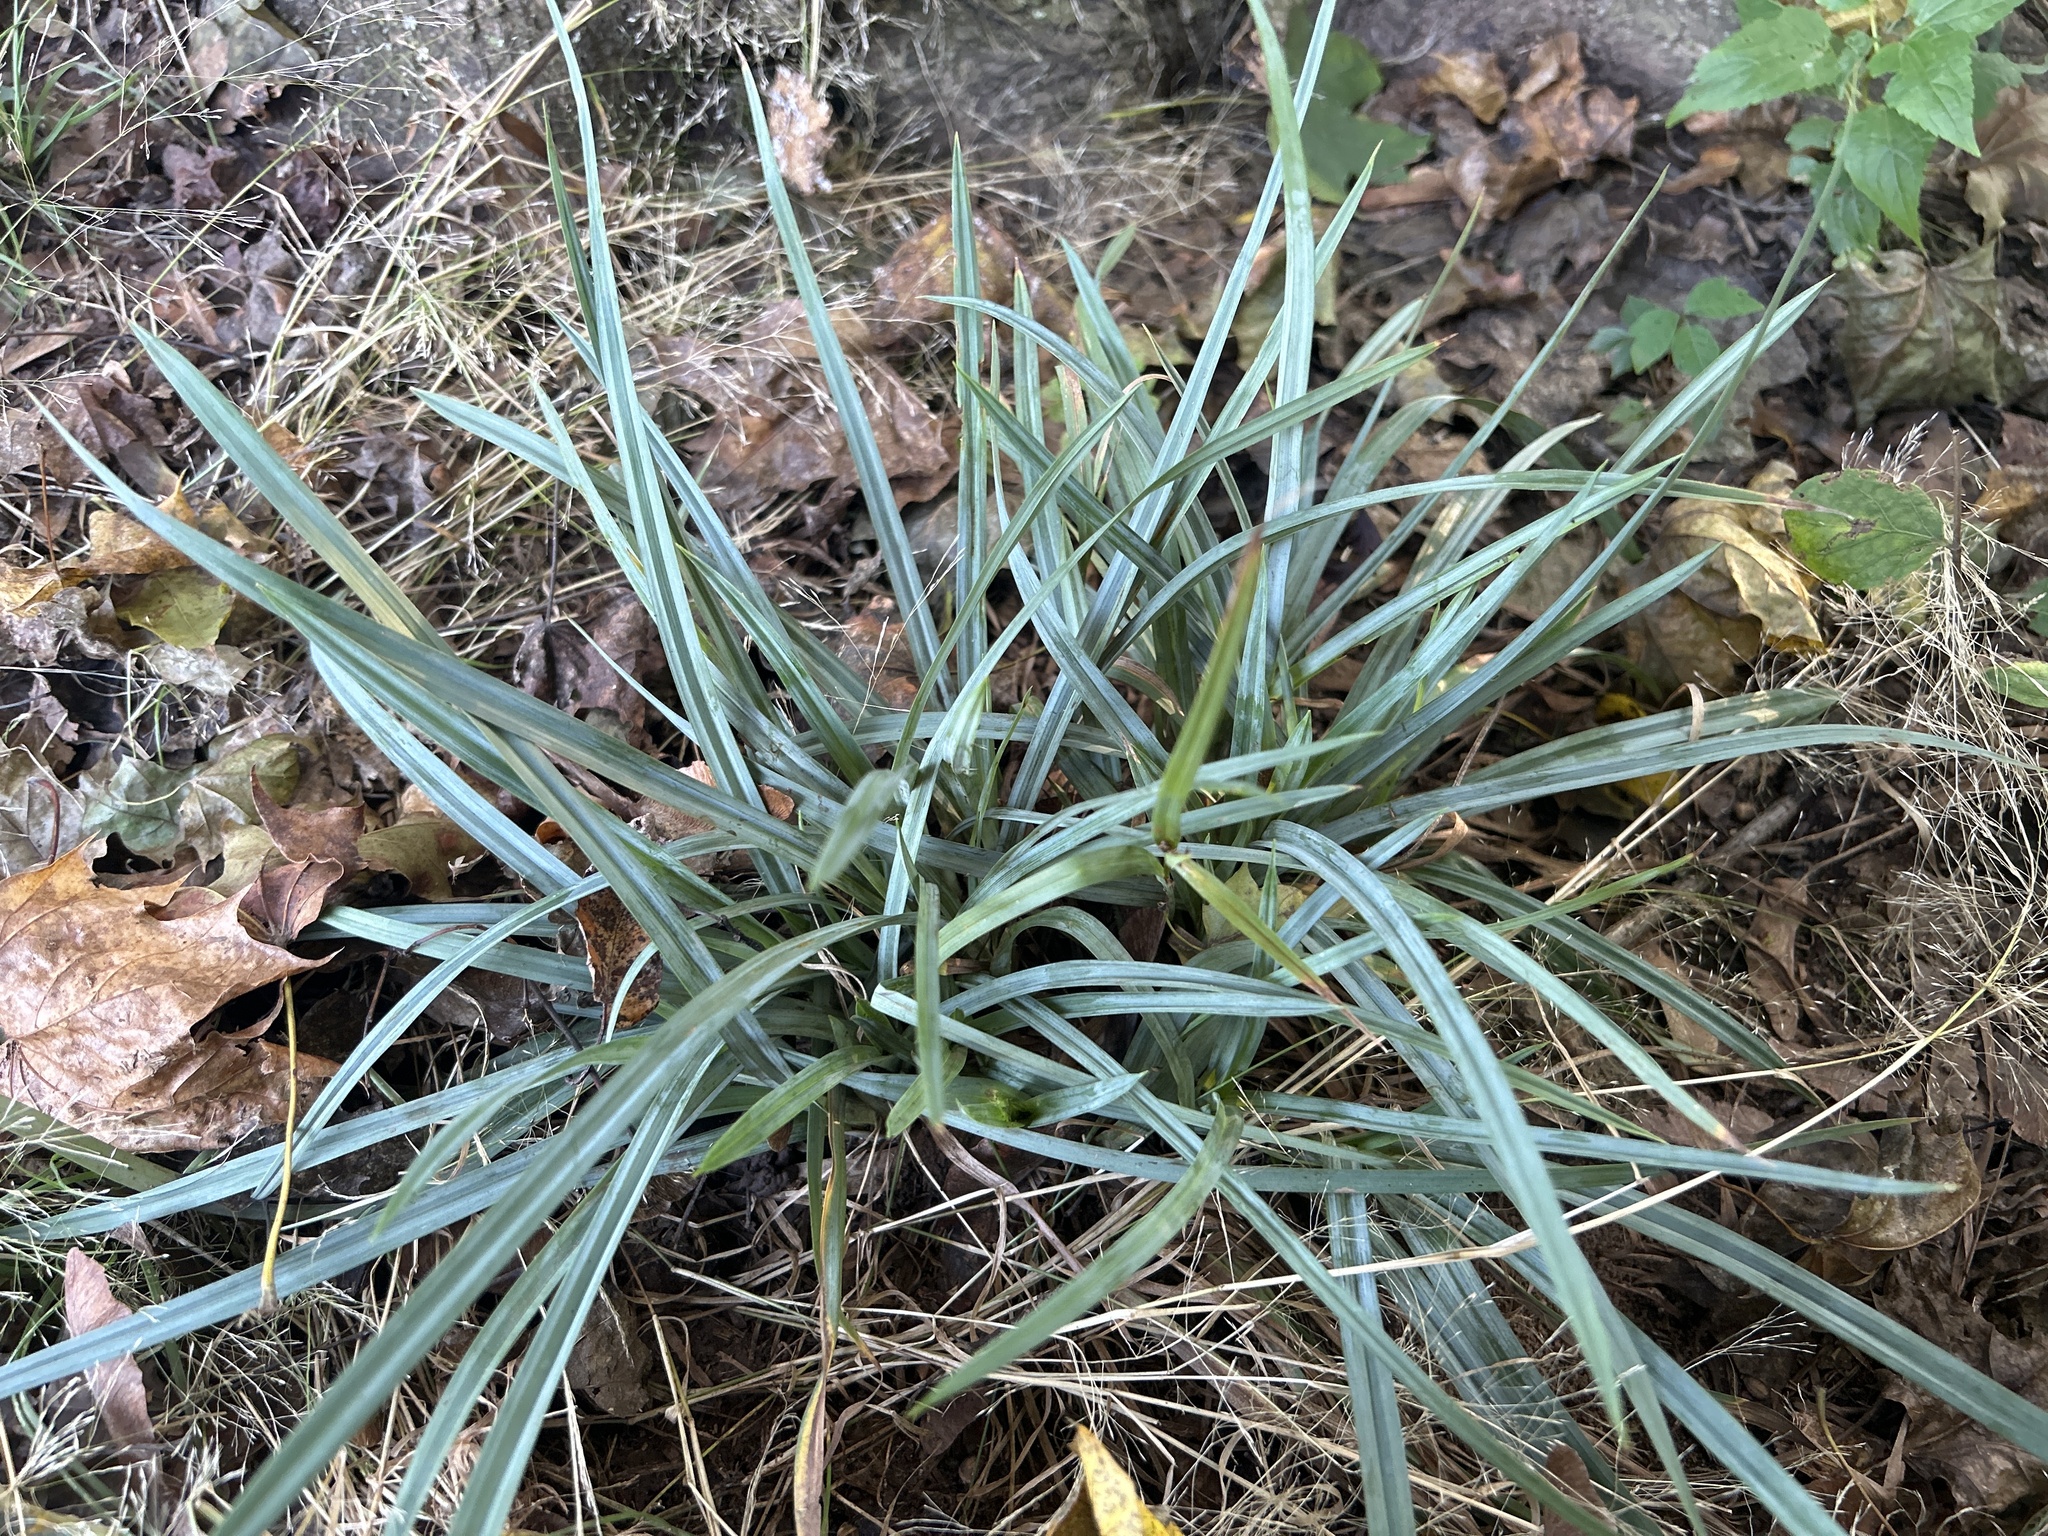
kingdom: Plantae
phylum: Tracheophyta
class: Liliopsida
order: Poales
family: Cyperaceae
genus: Carex
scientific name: Carex glaucodea
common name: Blue sedge
